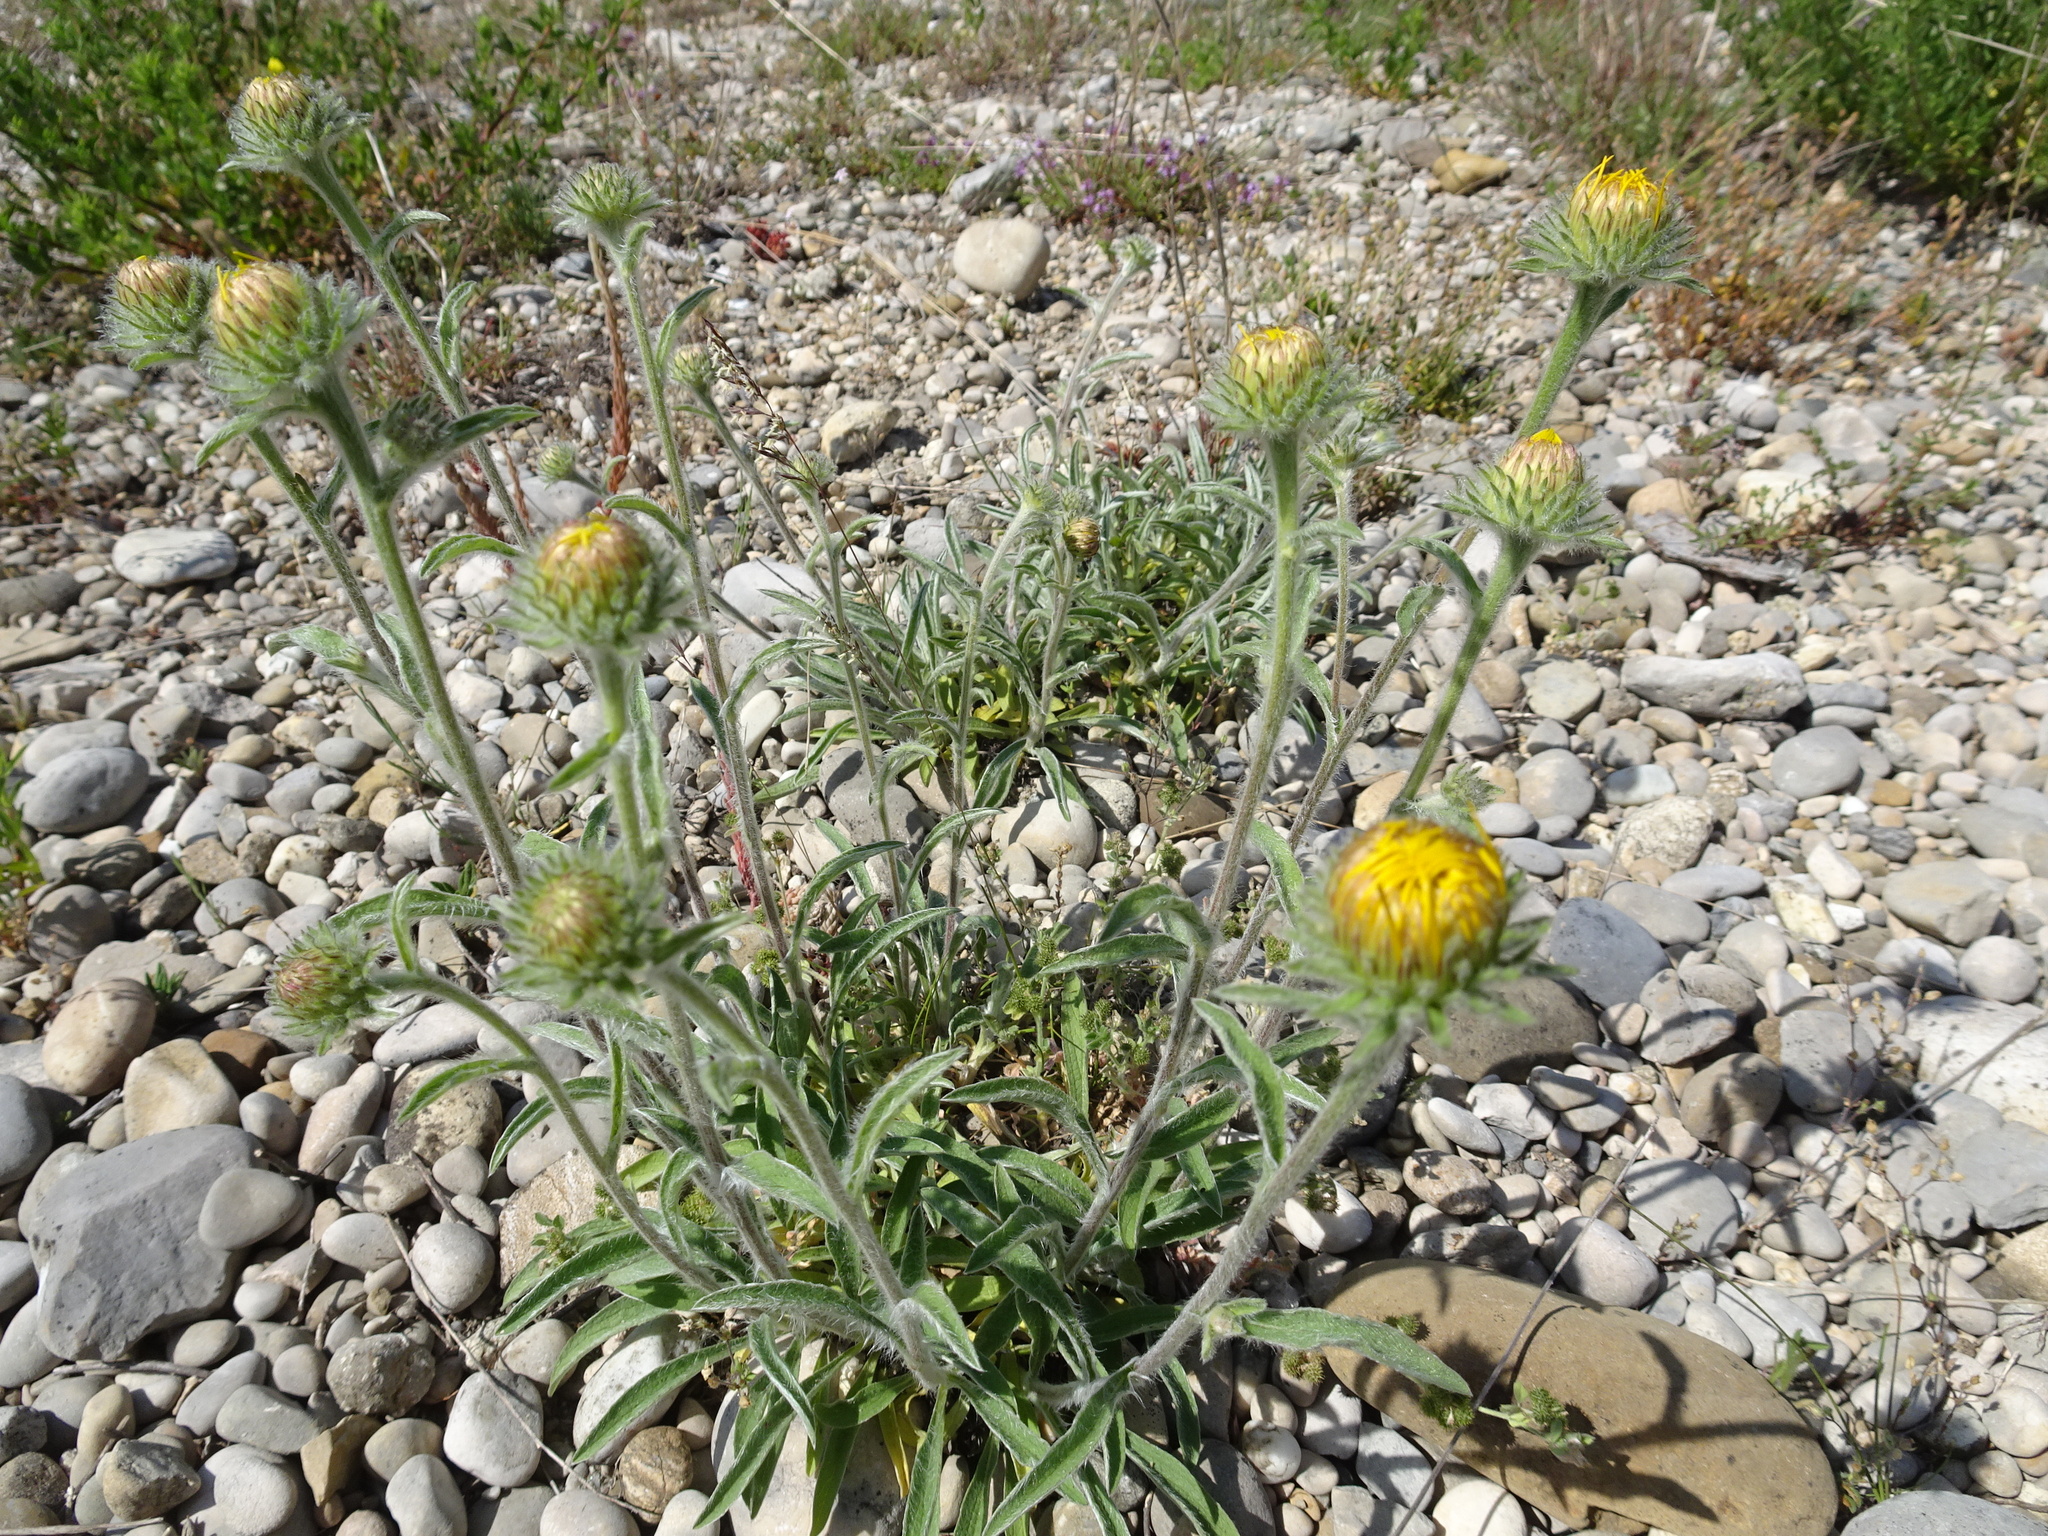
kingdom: Plantae
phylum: Tracheophyta
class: Magnoliopsida
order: Asterales
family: Asteraceae
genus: Pentanema
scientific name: Pentanema montanum
